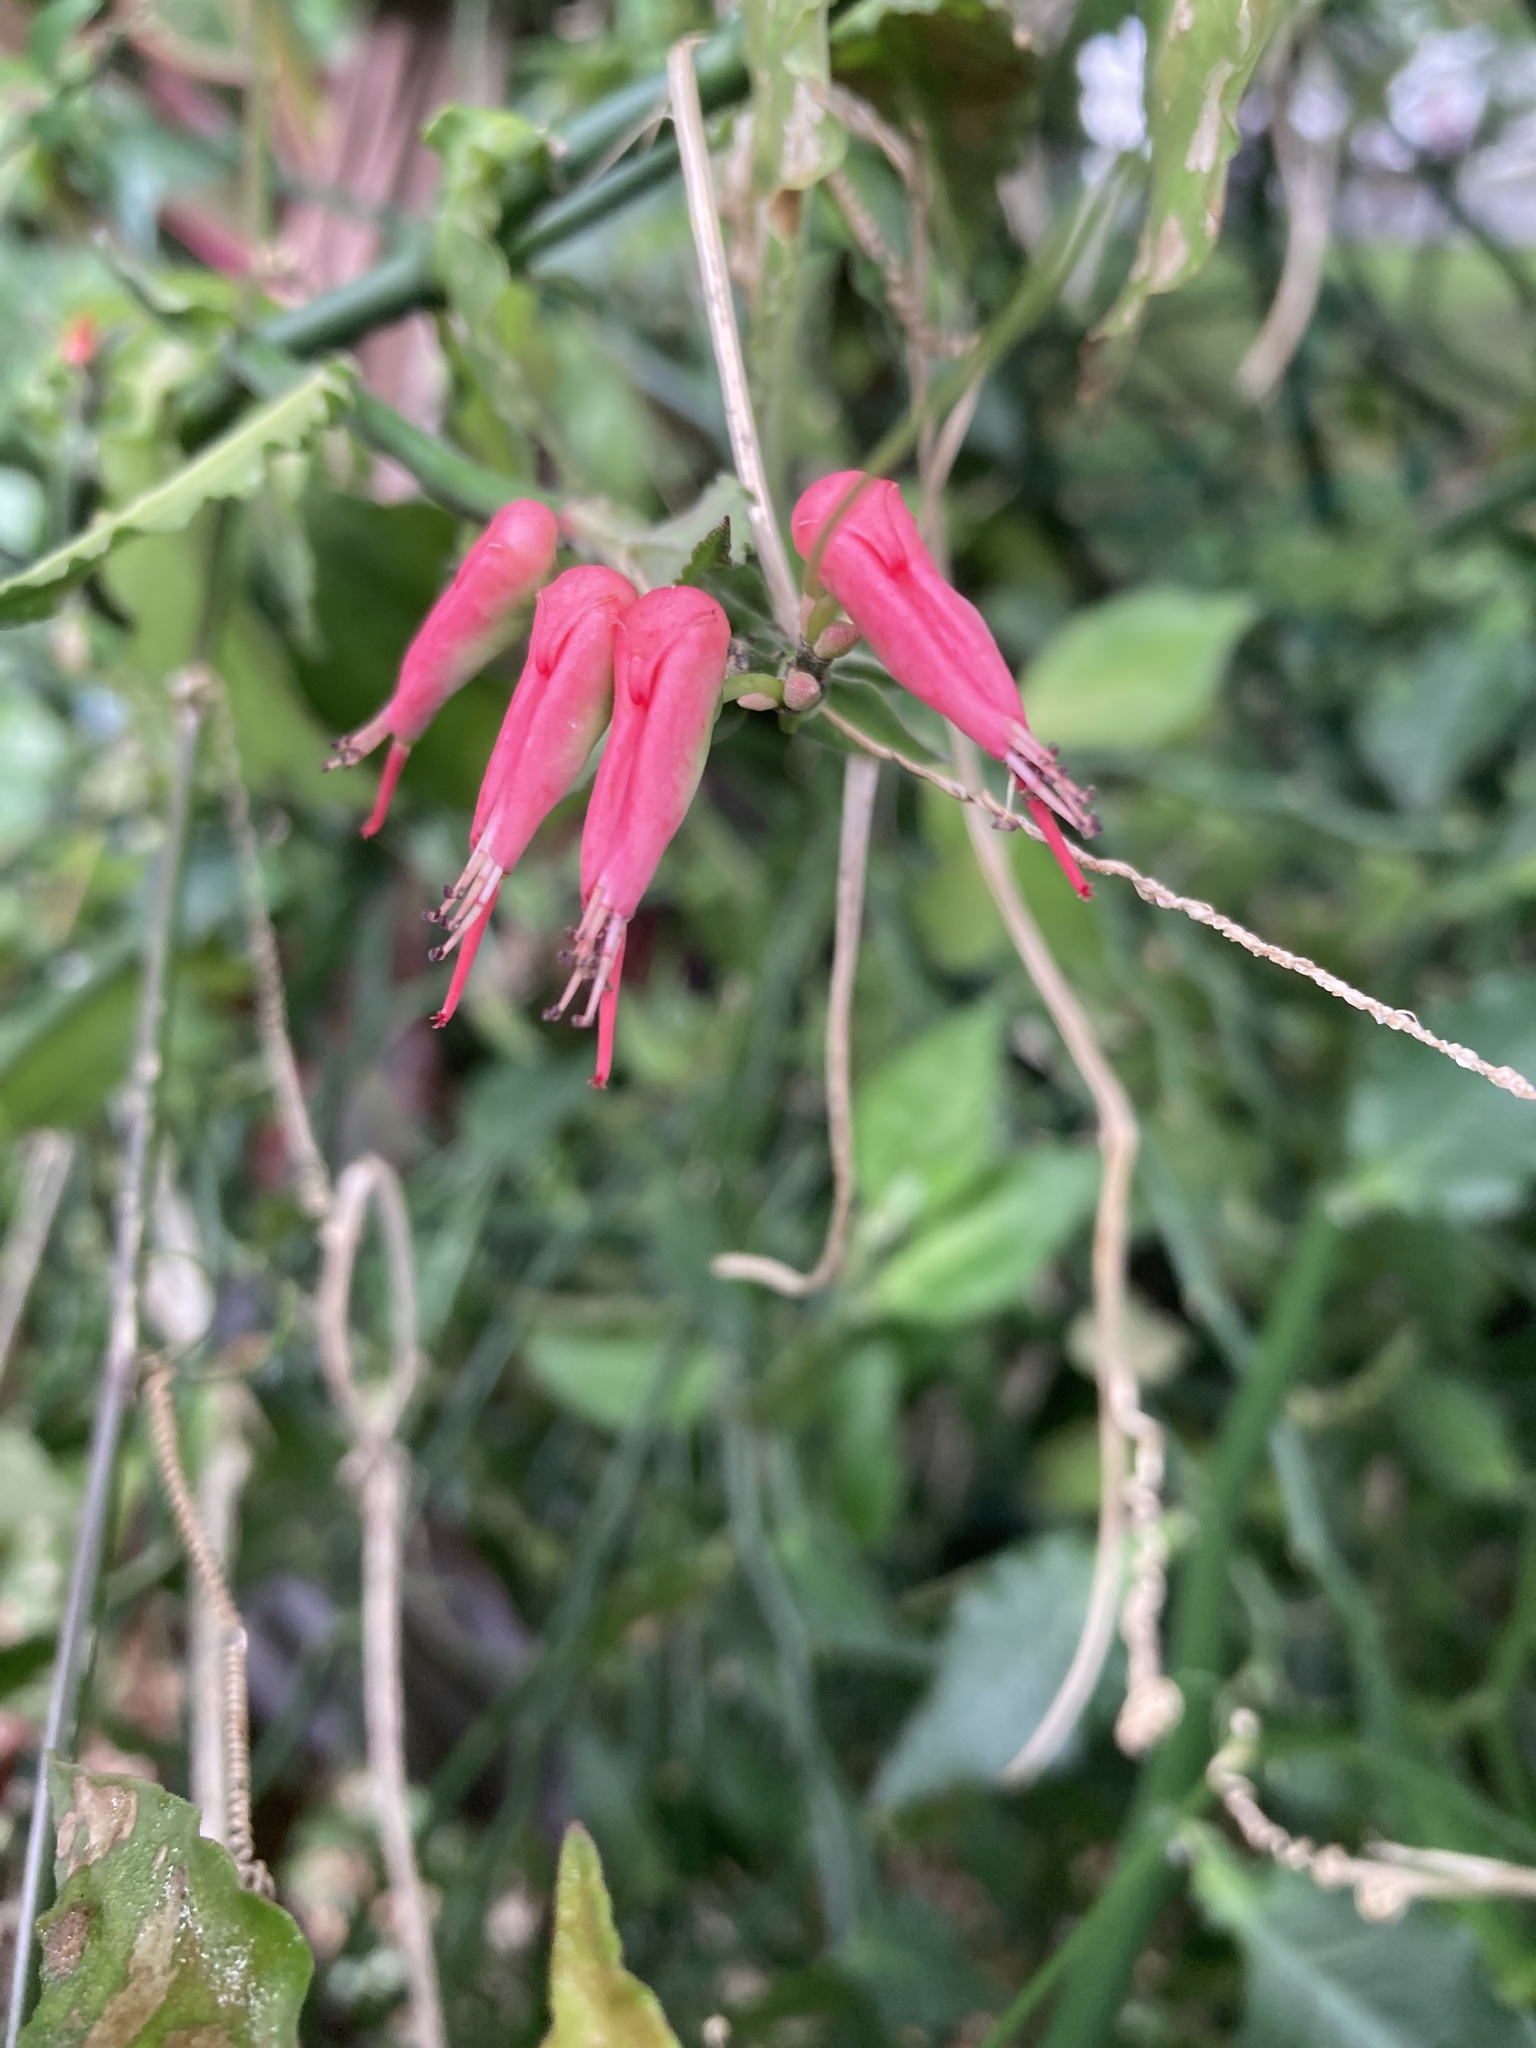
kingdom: Plantae
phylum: Tracheophyta
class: Magnoliopsida
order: Malpighiales
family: Euphorbiaceae
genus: Euphorbia
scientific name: Euphorbia tithymaloides
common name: Slipperplant
